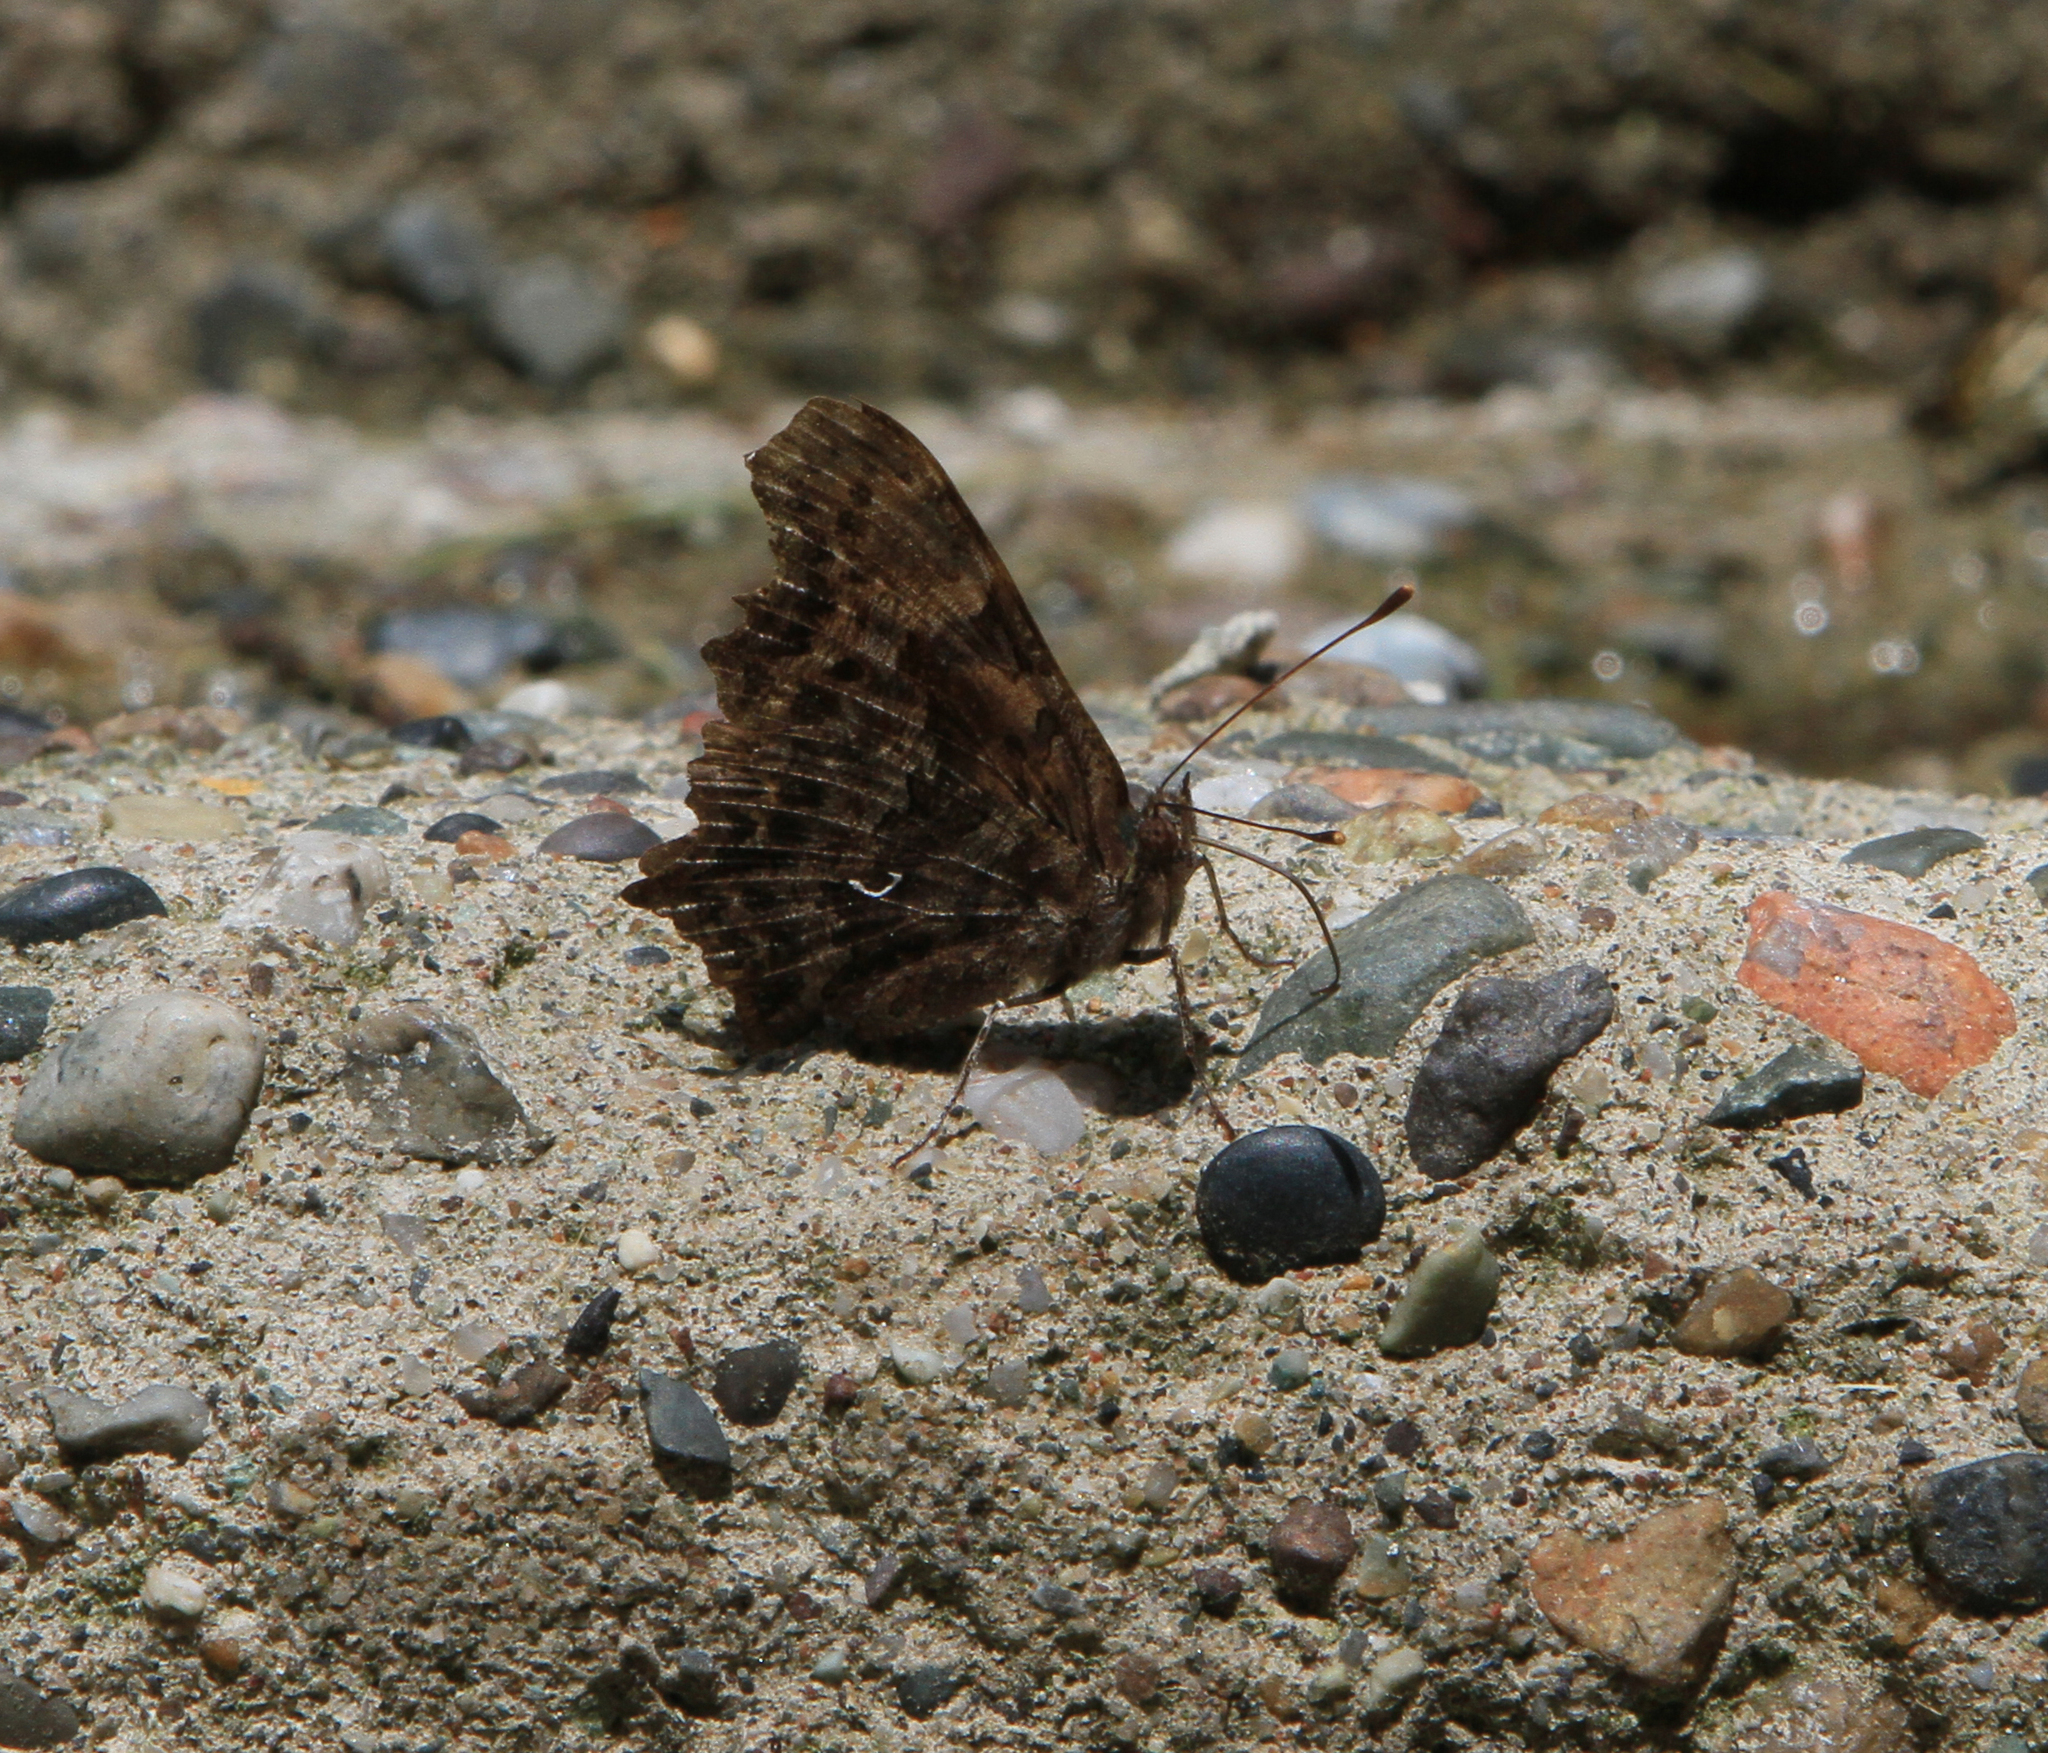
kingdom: Animalia
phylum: Arthropoda
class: Insecta
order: Lepidoptera
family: Nymphalidae
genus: Polygonia
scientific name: Polygonia c-album
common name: Comma
